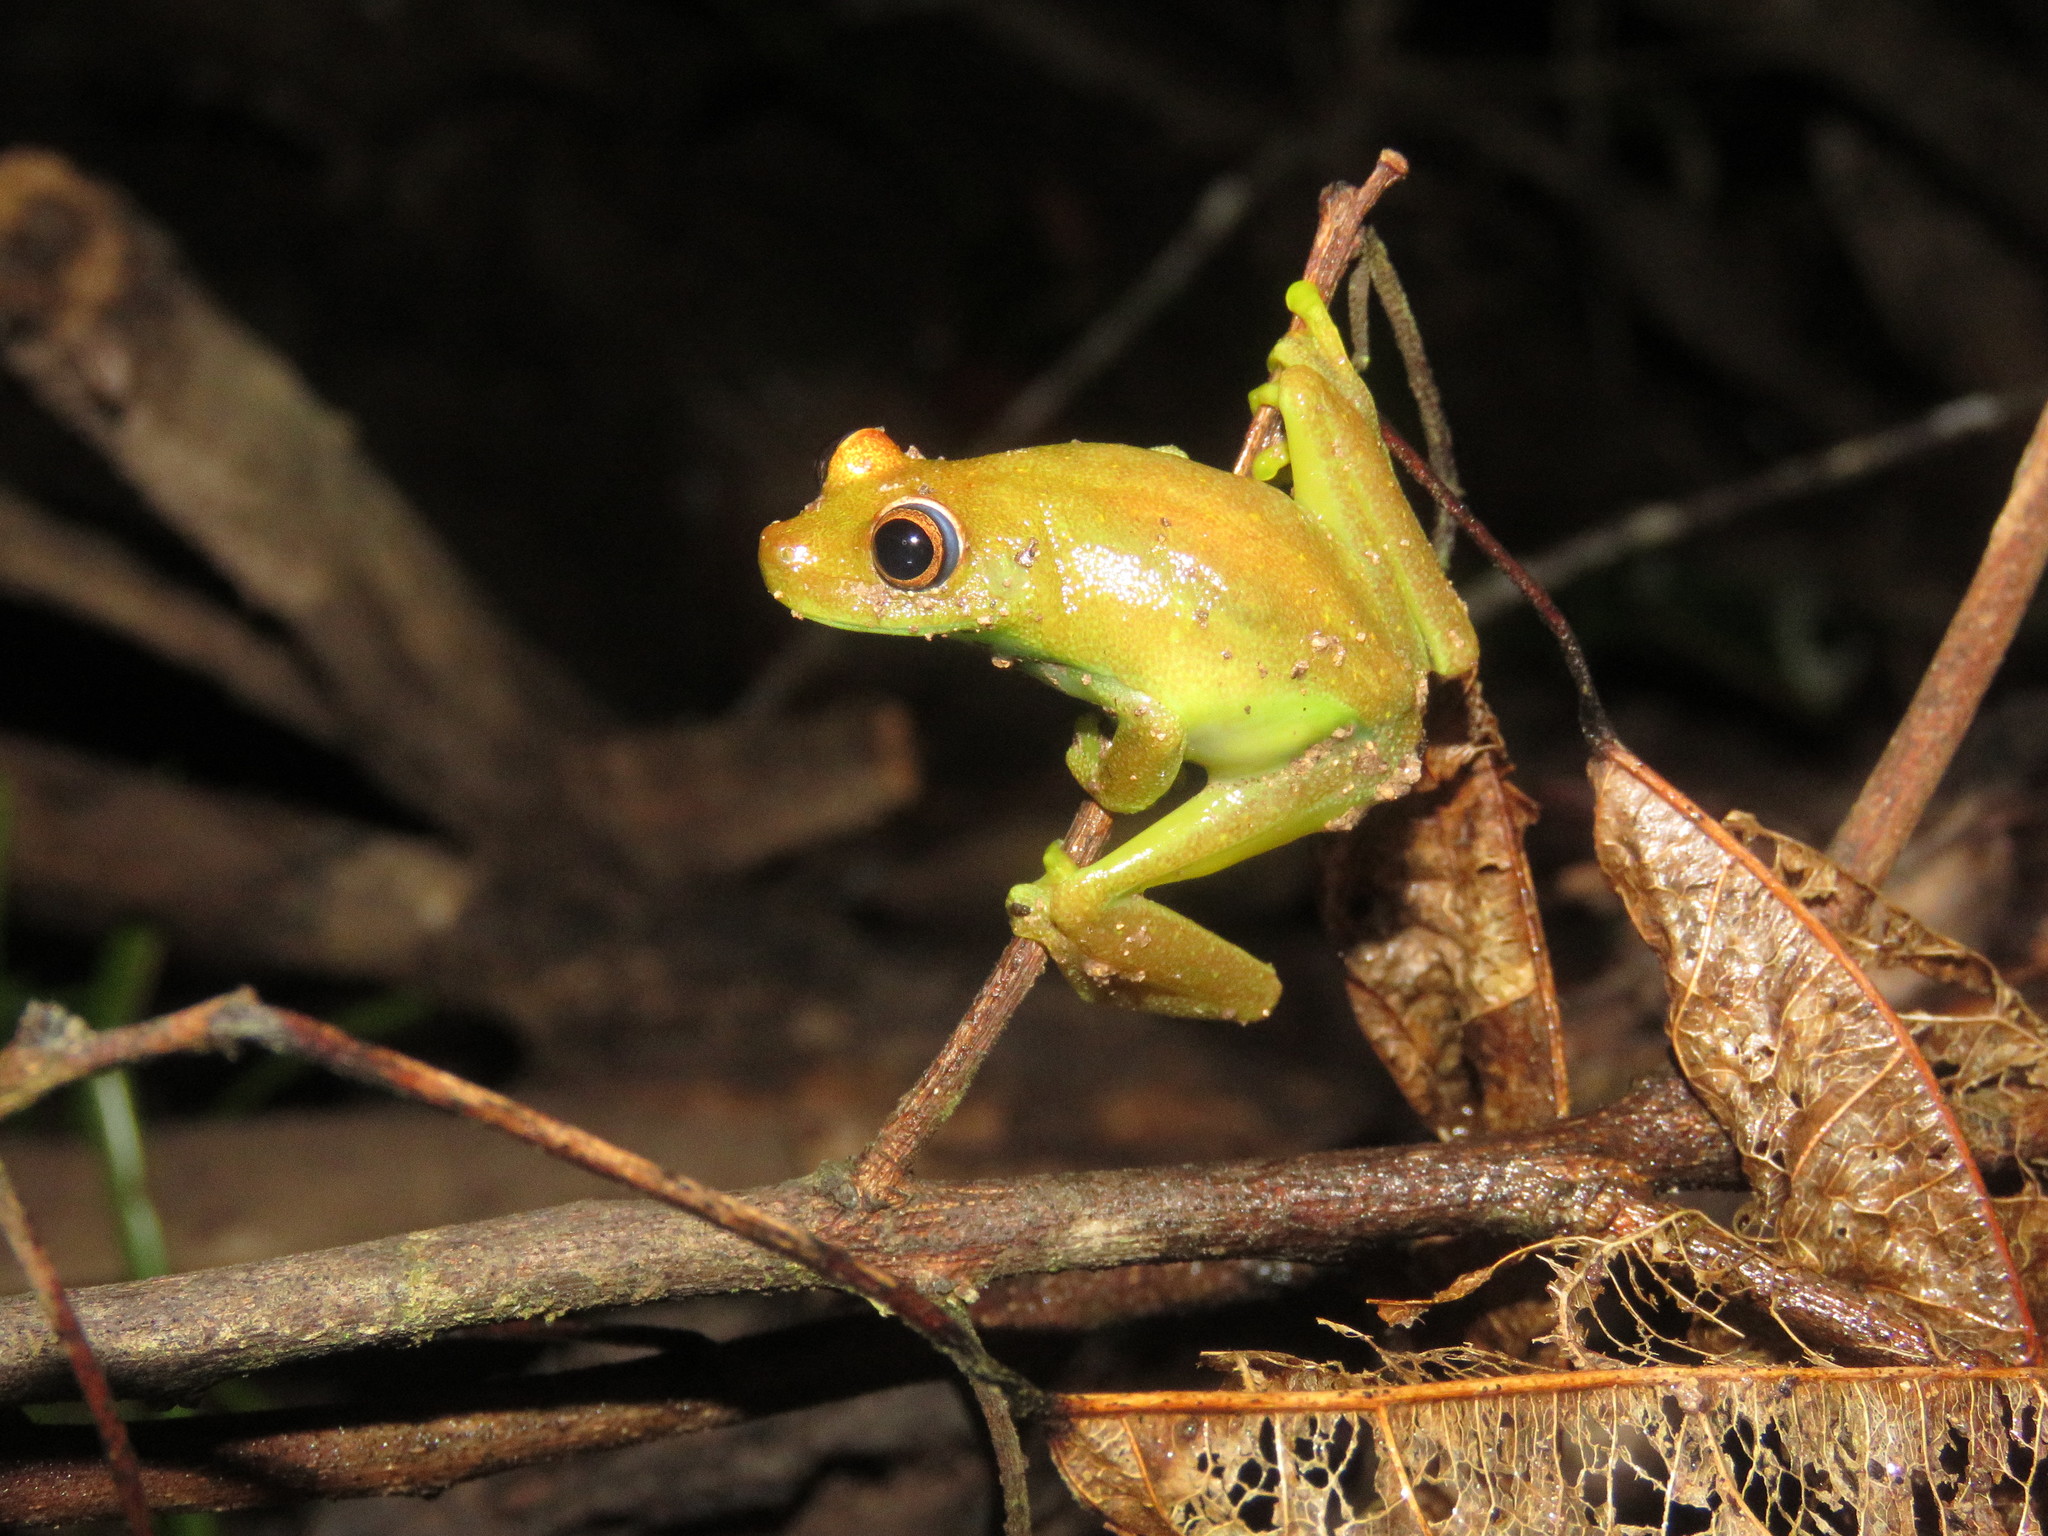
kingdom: Animalia
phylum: Chordata
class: Amphibia
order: Anura
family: Hylidae
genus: Boana
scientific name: Boana cinerascens
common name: Demerara falls treefrog
